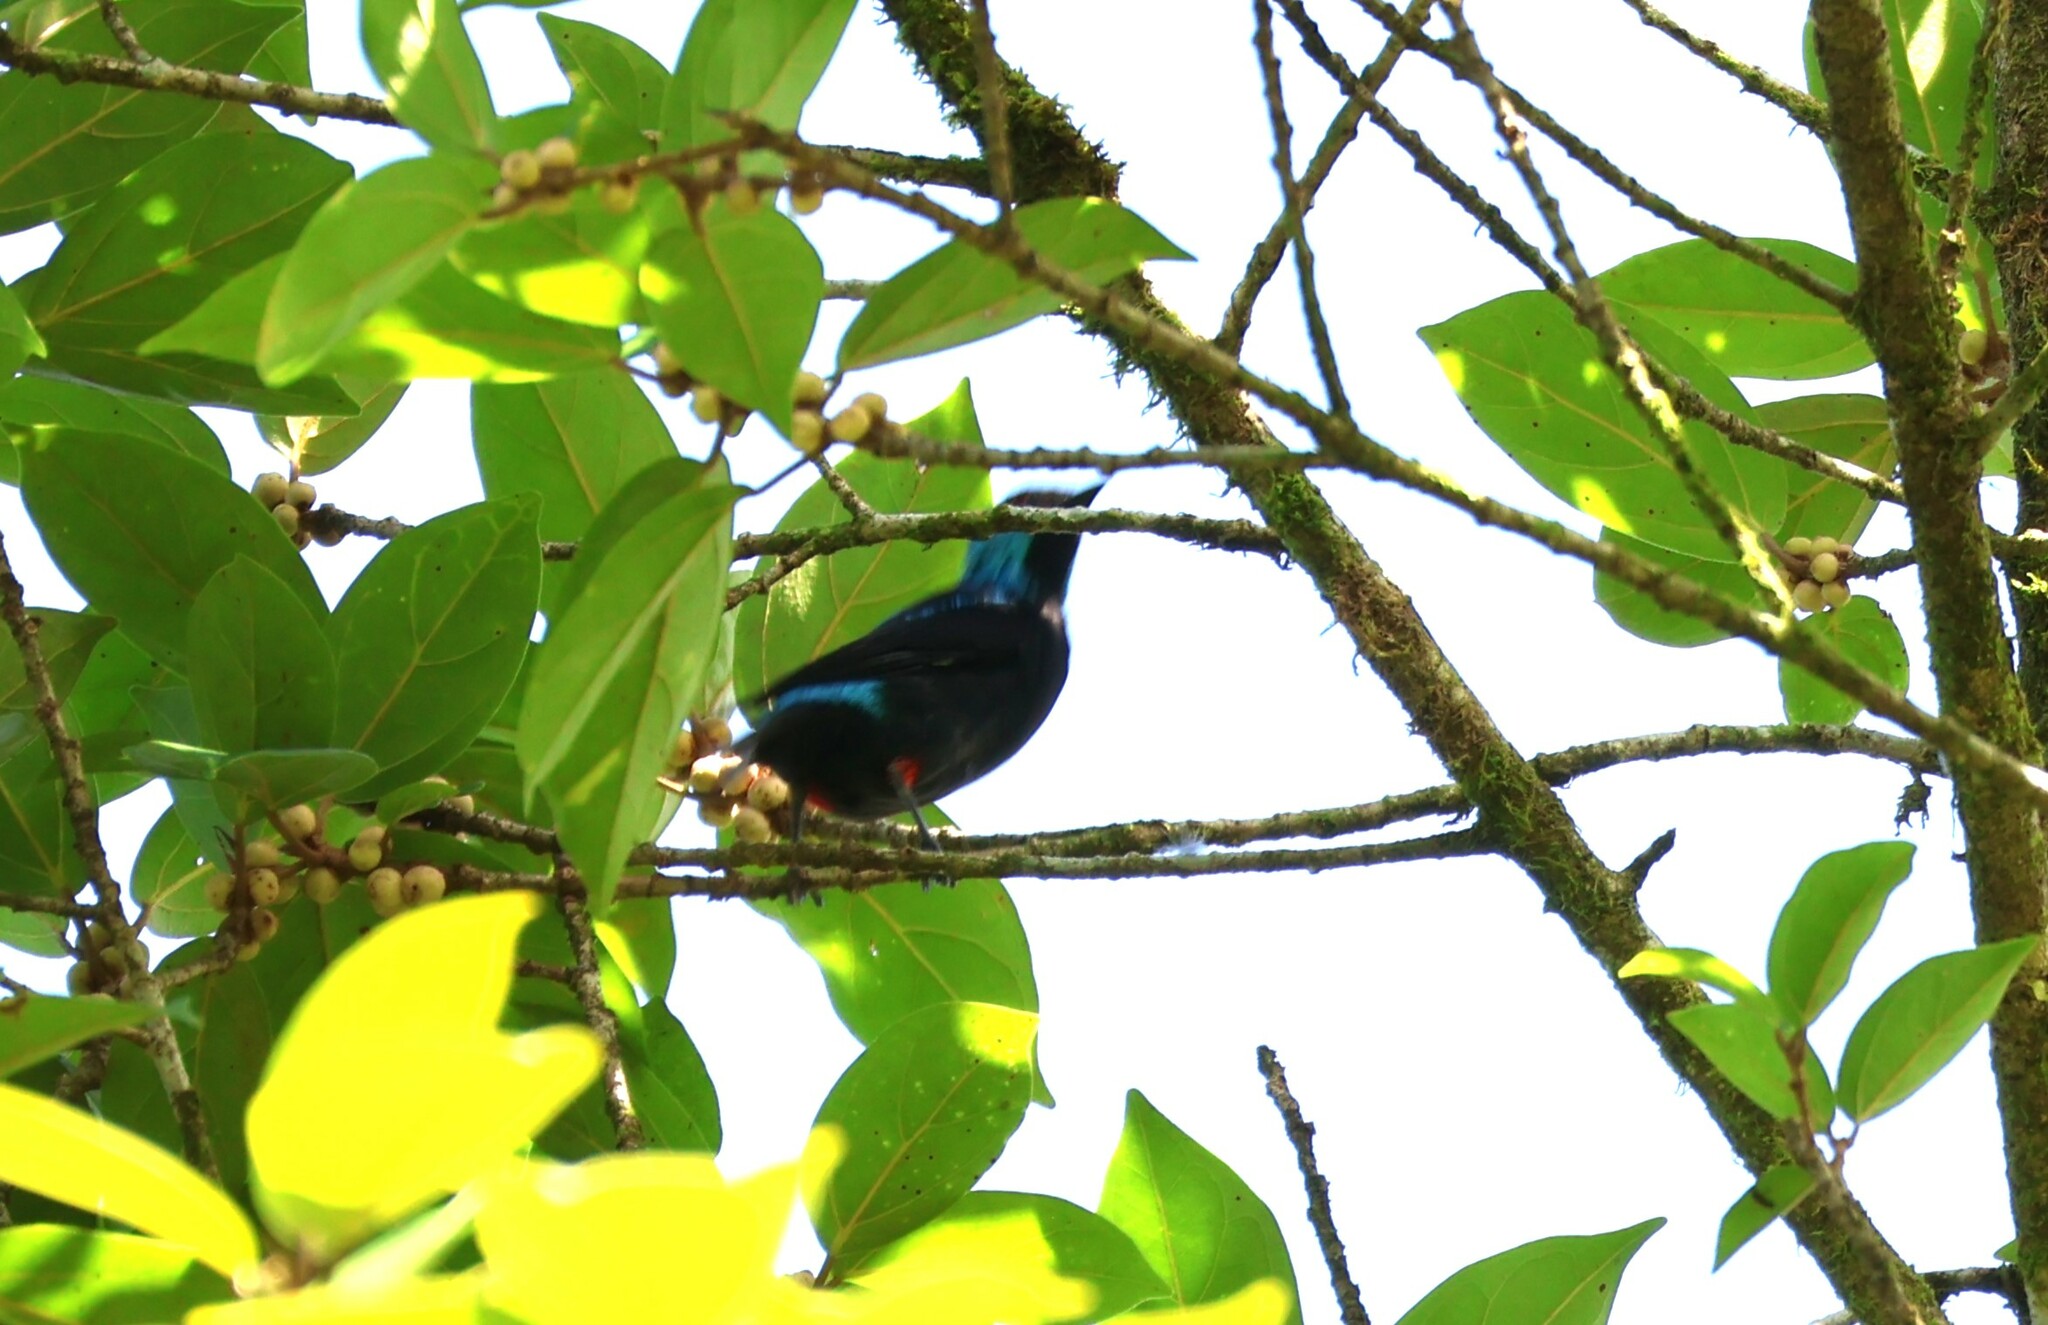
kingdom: Animalia
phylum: Chordata
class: Aves
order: Passeriformes
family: Thraupidae
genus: Dacnis
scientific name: Dacnis venusta
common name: Scarlet-thighed dacnis
